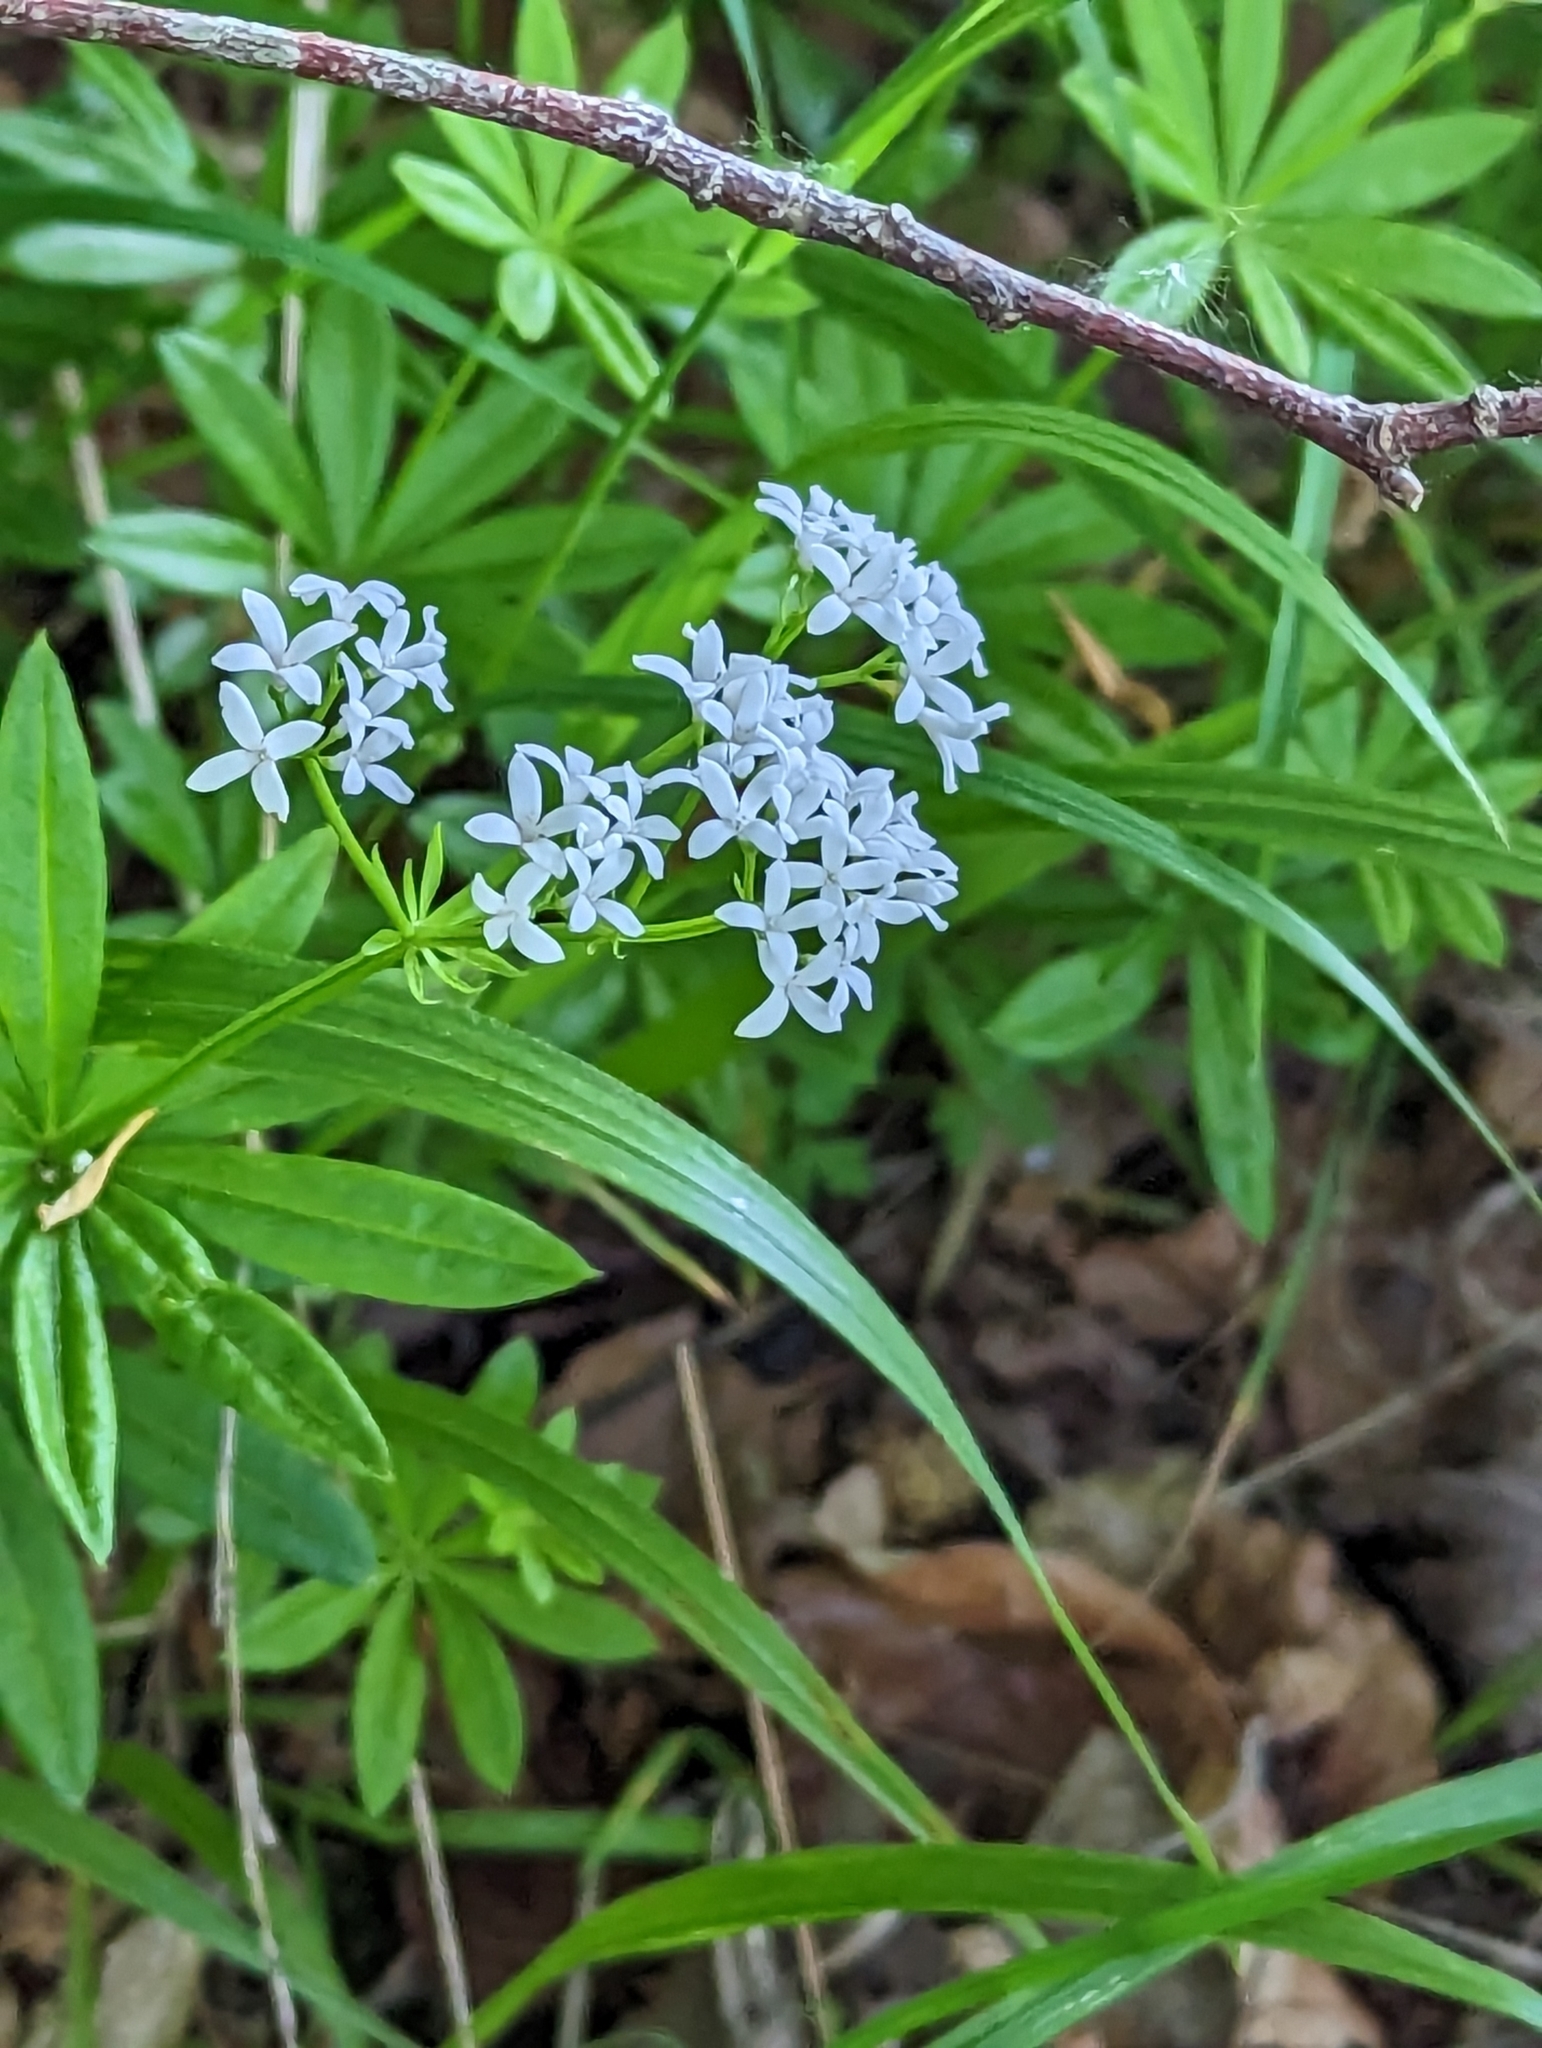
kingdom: Plantae
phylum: Tracheophyta
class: Magnoliopsida
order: Gentianales
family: Rubiaceae
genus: Galium
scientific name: Galium odoratum
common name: Sweet woodruff
